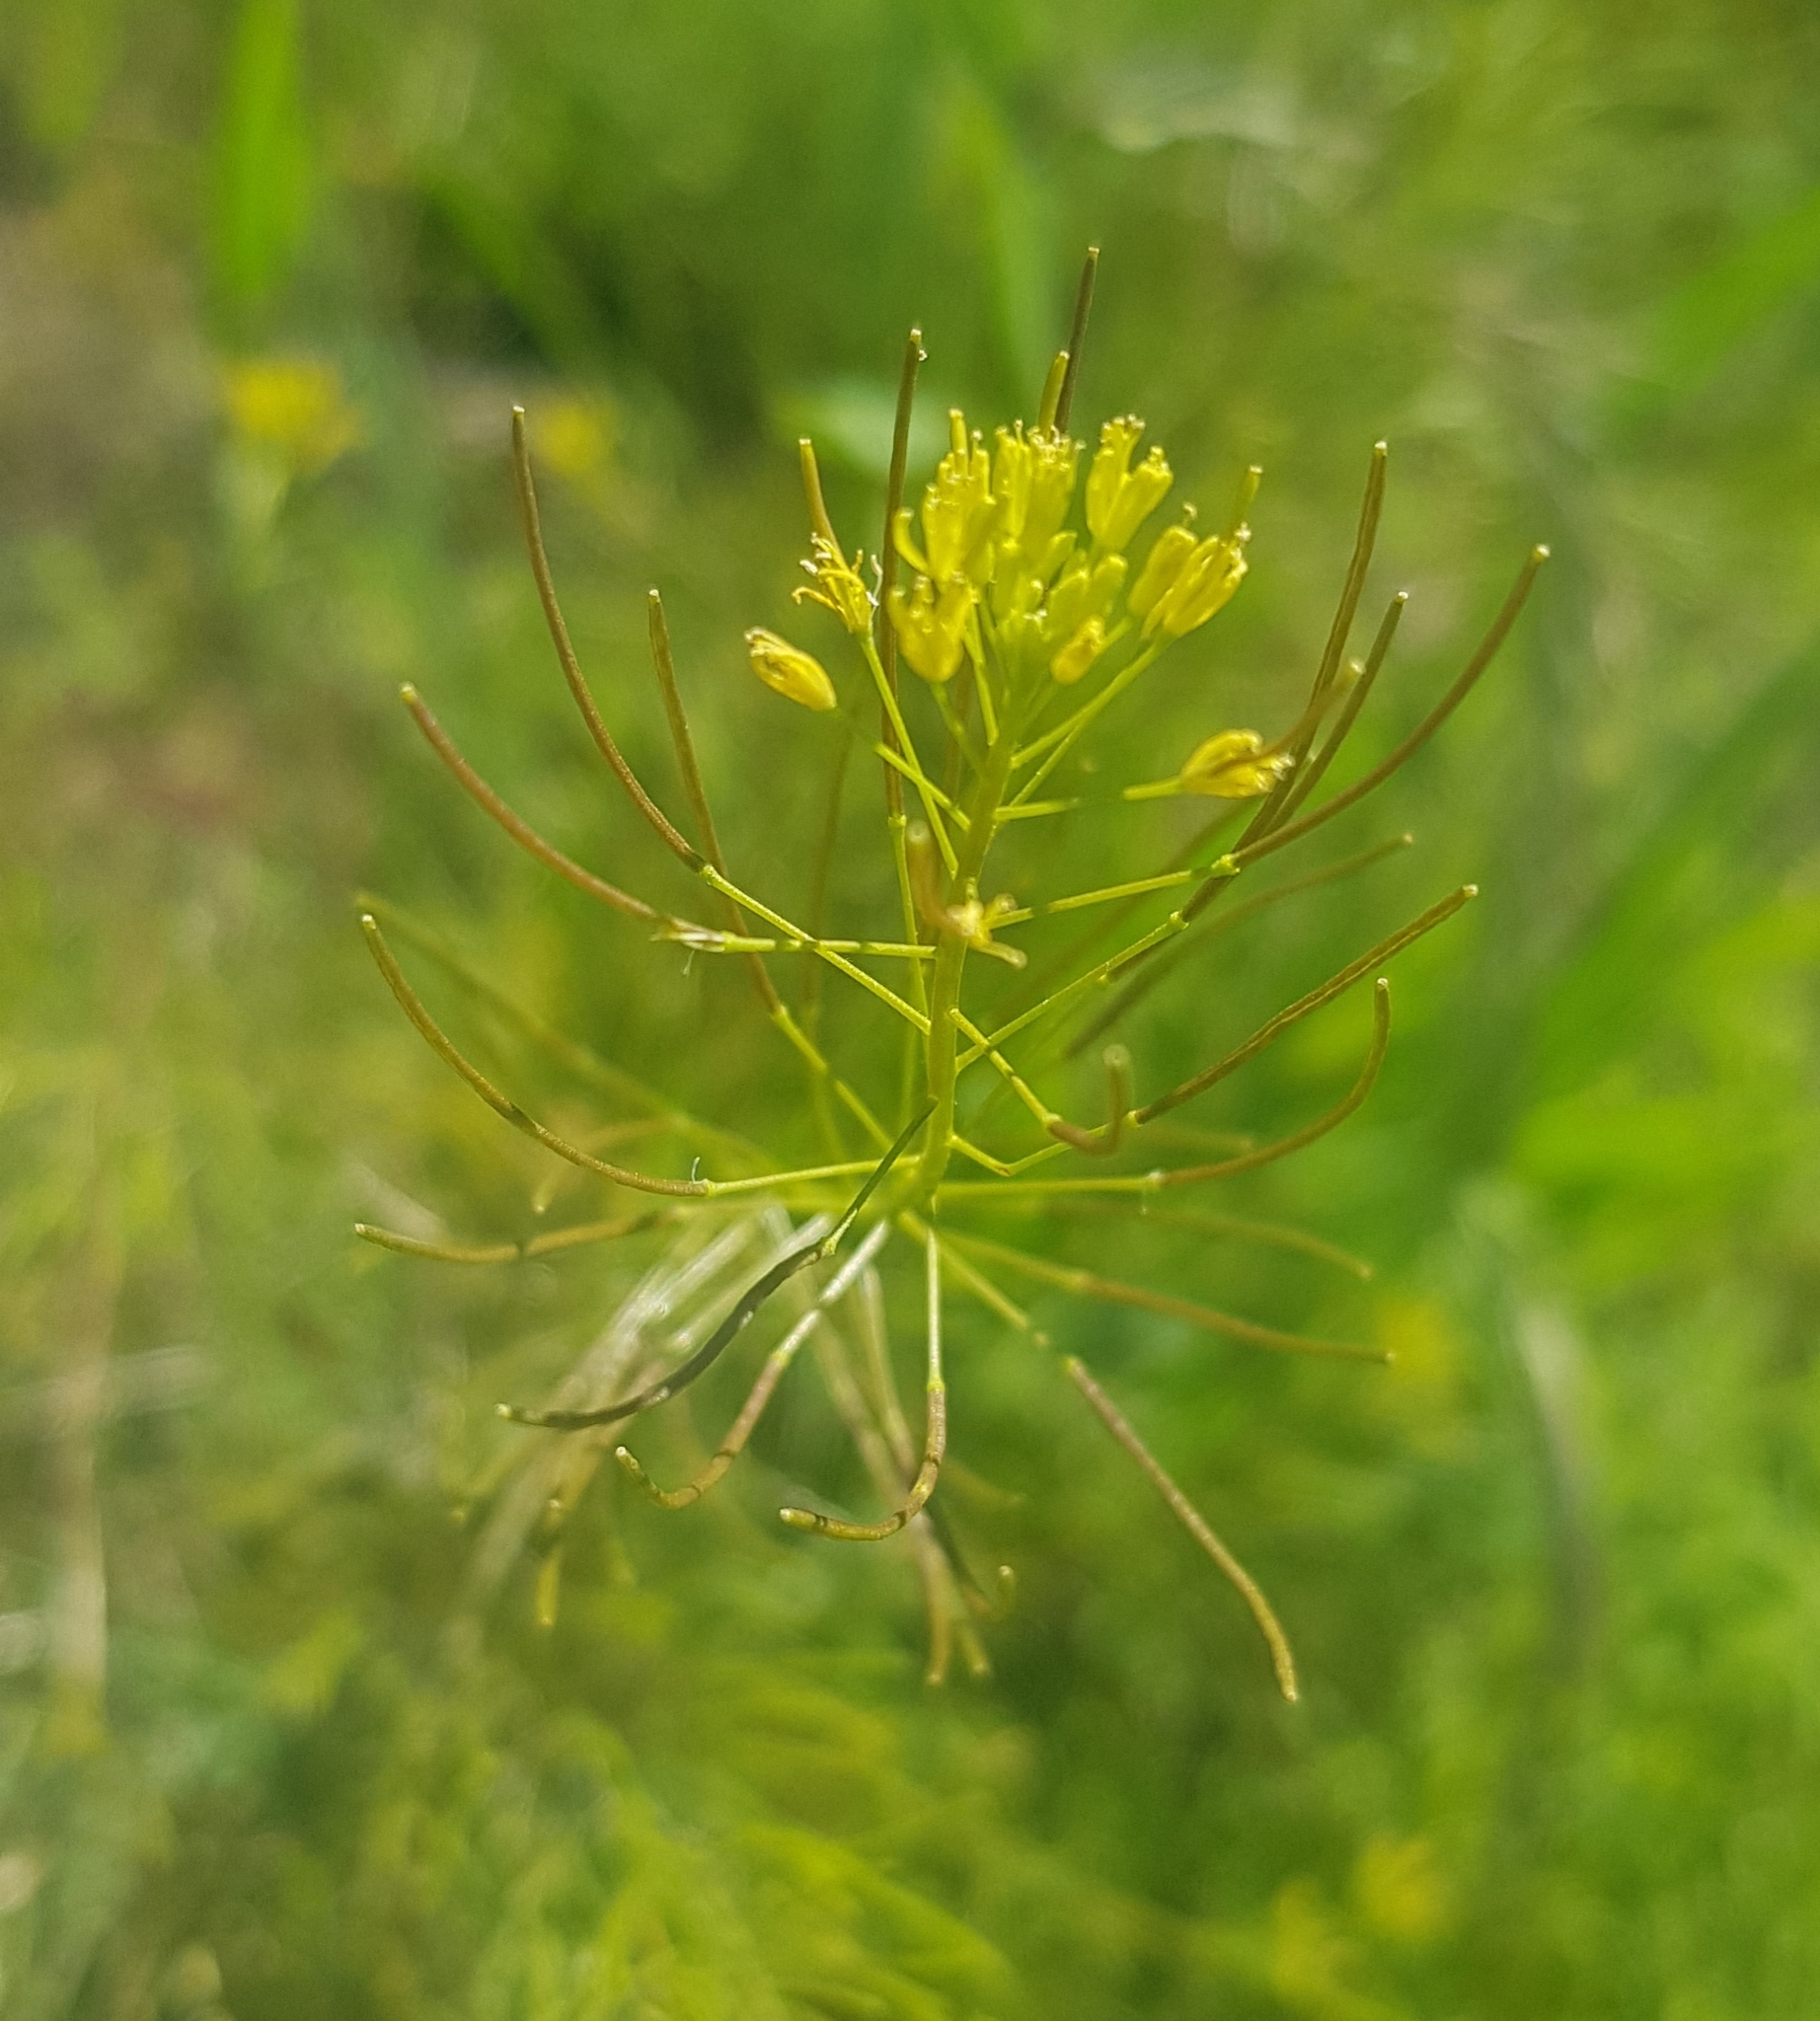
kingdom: Plantae
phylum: Tracheophyta
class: Magnoliopsida
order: Brassicales
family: Brassicaceae
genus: Descurainia
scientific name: Descurainia sophia
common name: Flixweed
